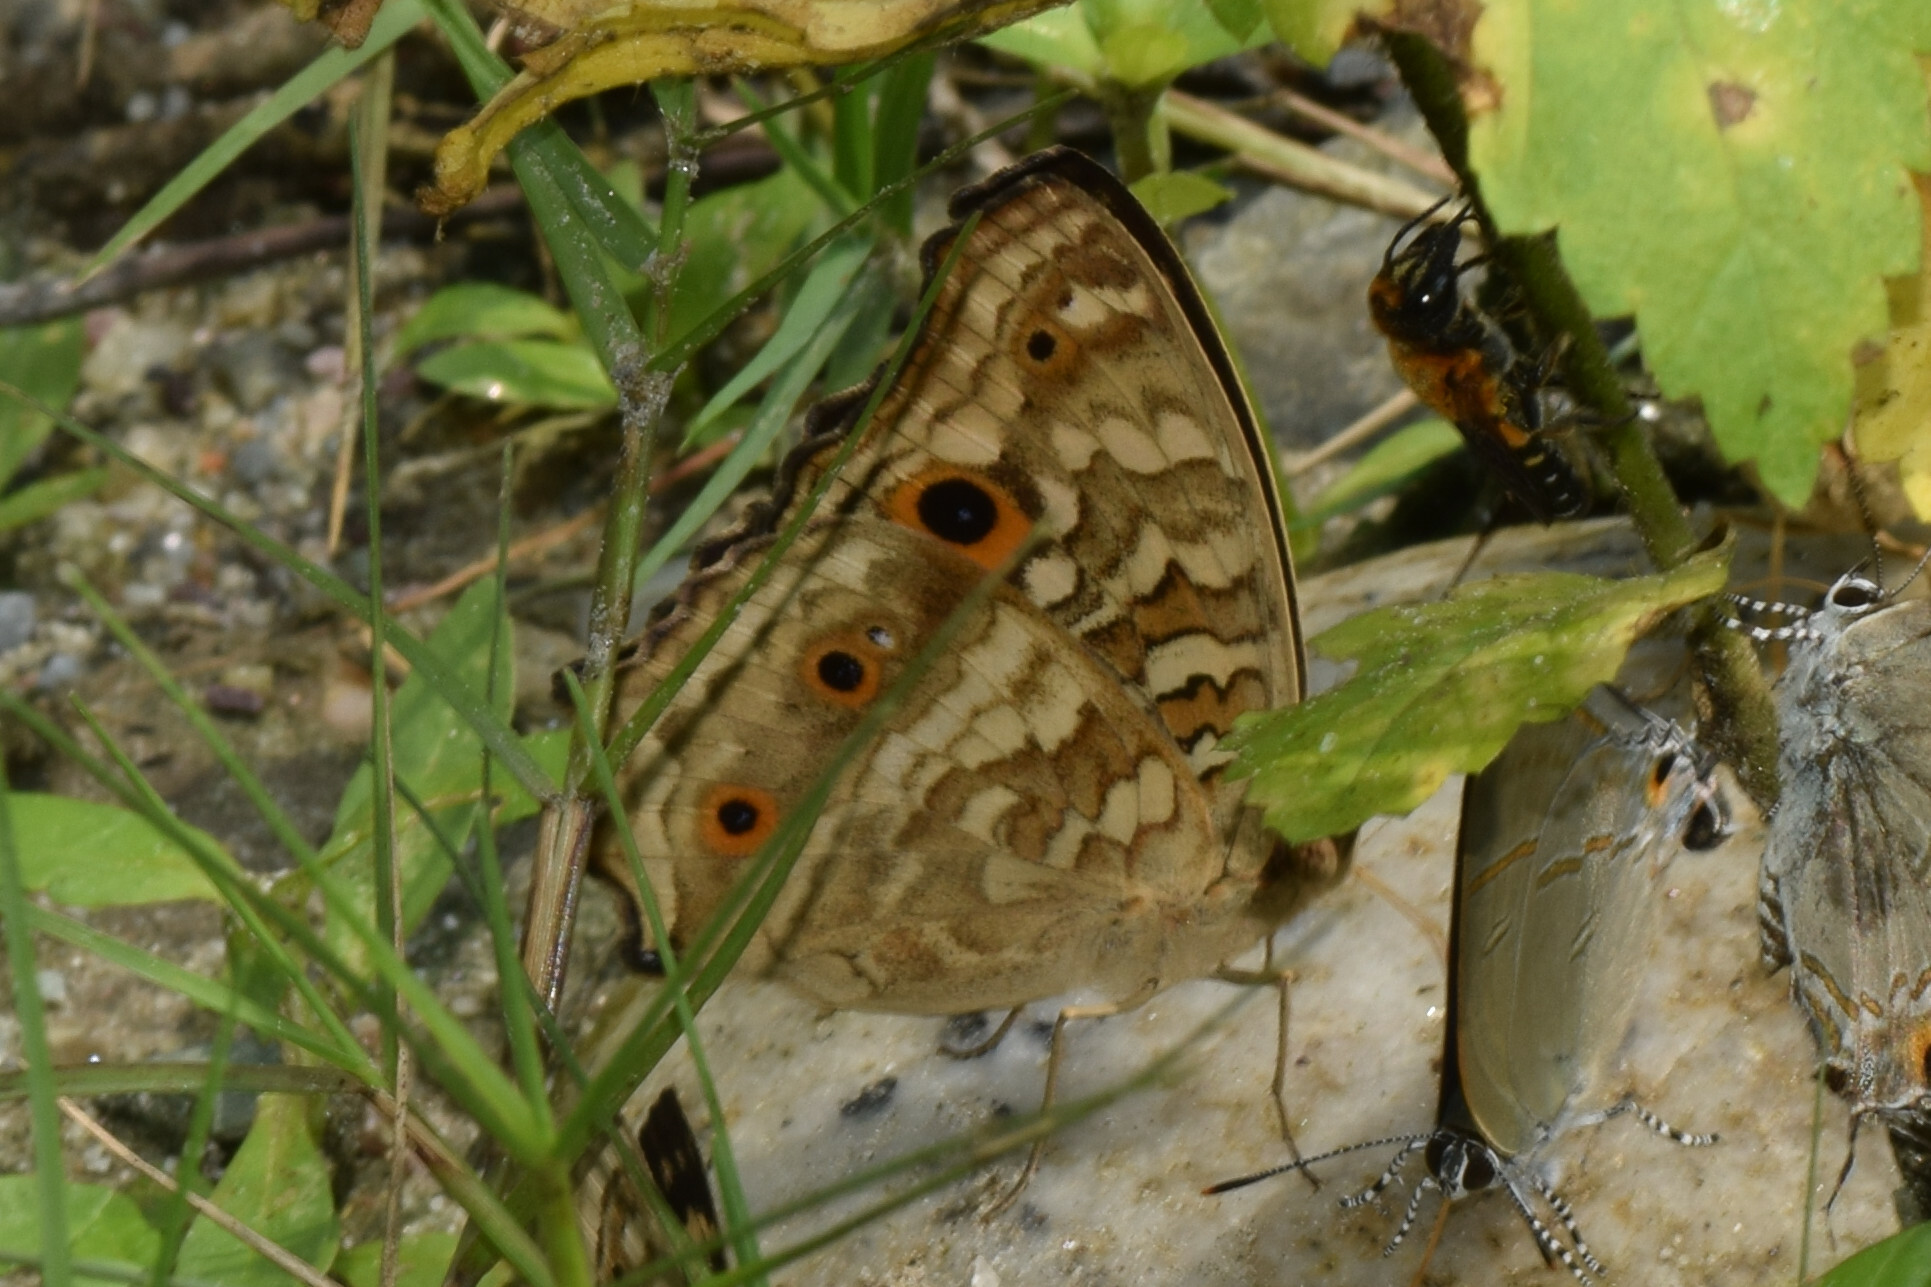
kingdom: Animalia
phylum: Arthropoda
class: Insecta
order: Lepidoptera
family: Nymphalidae
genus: Junonia
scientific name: Junonia lemonias
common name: Lemon pansy
